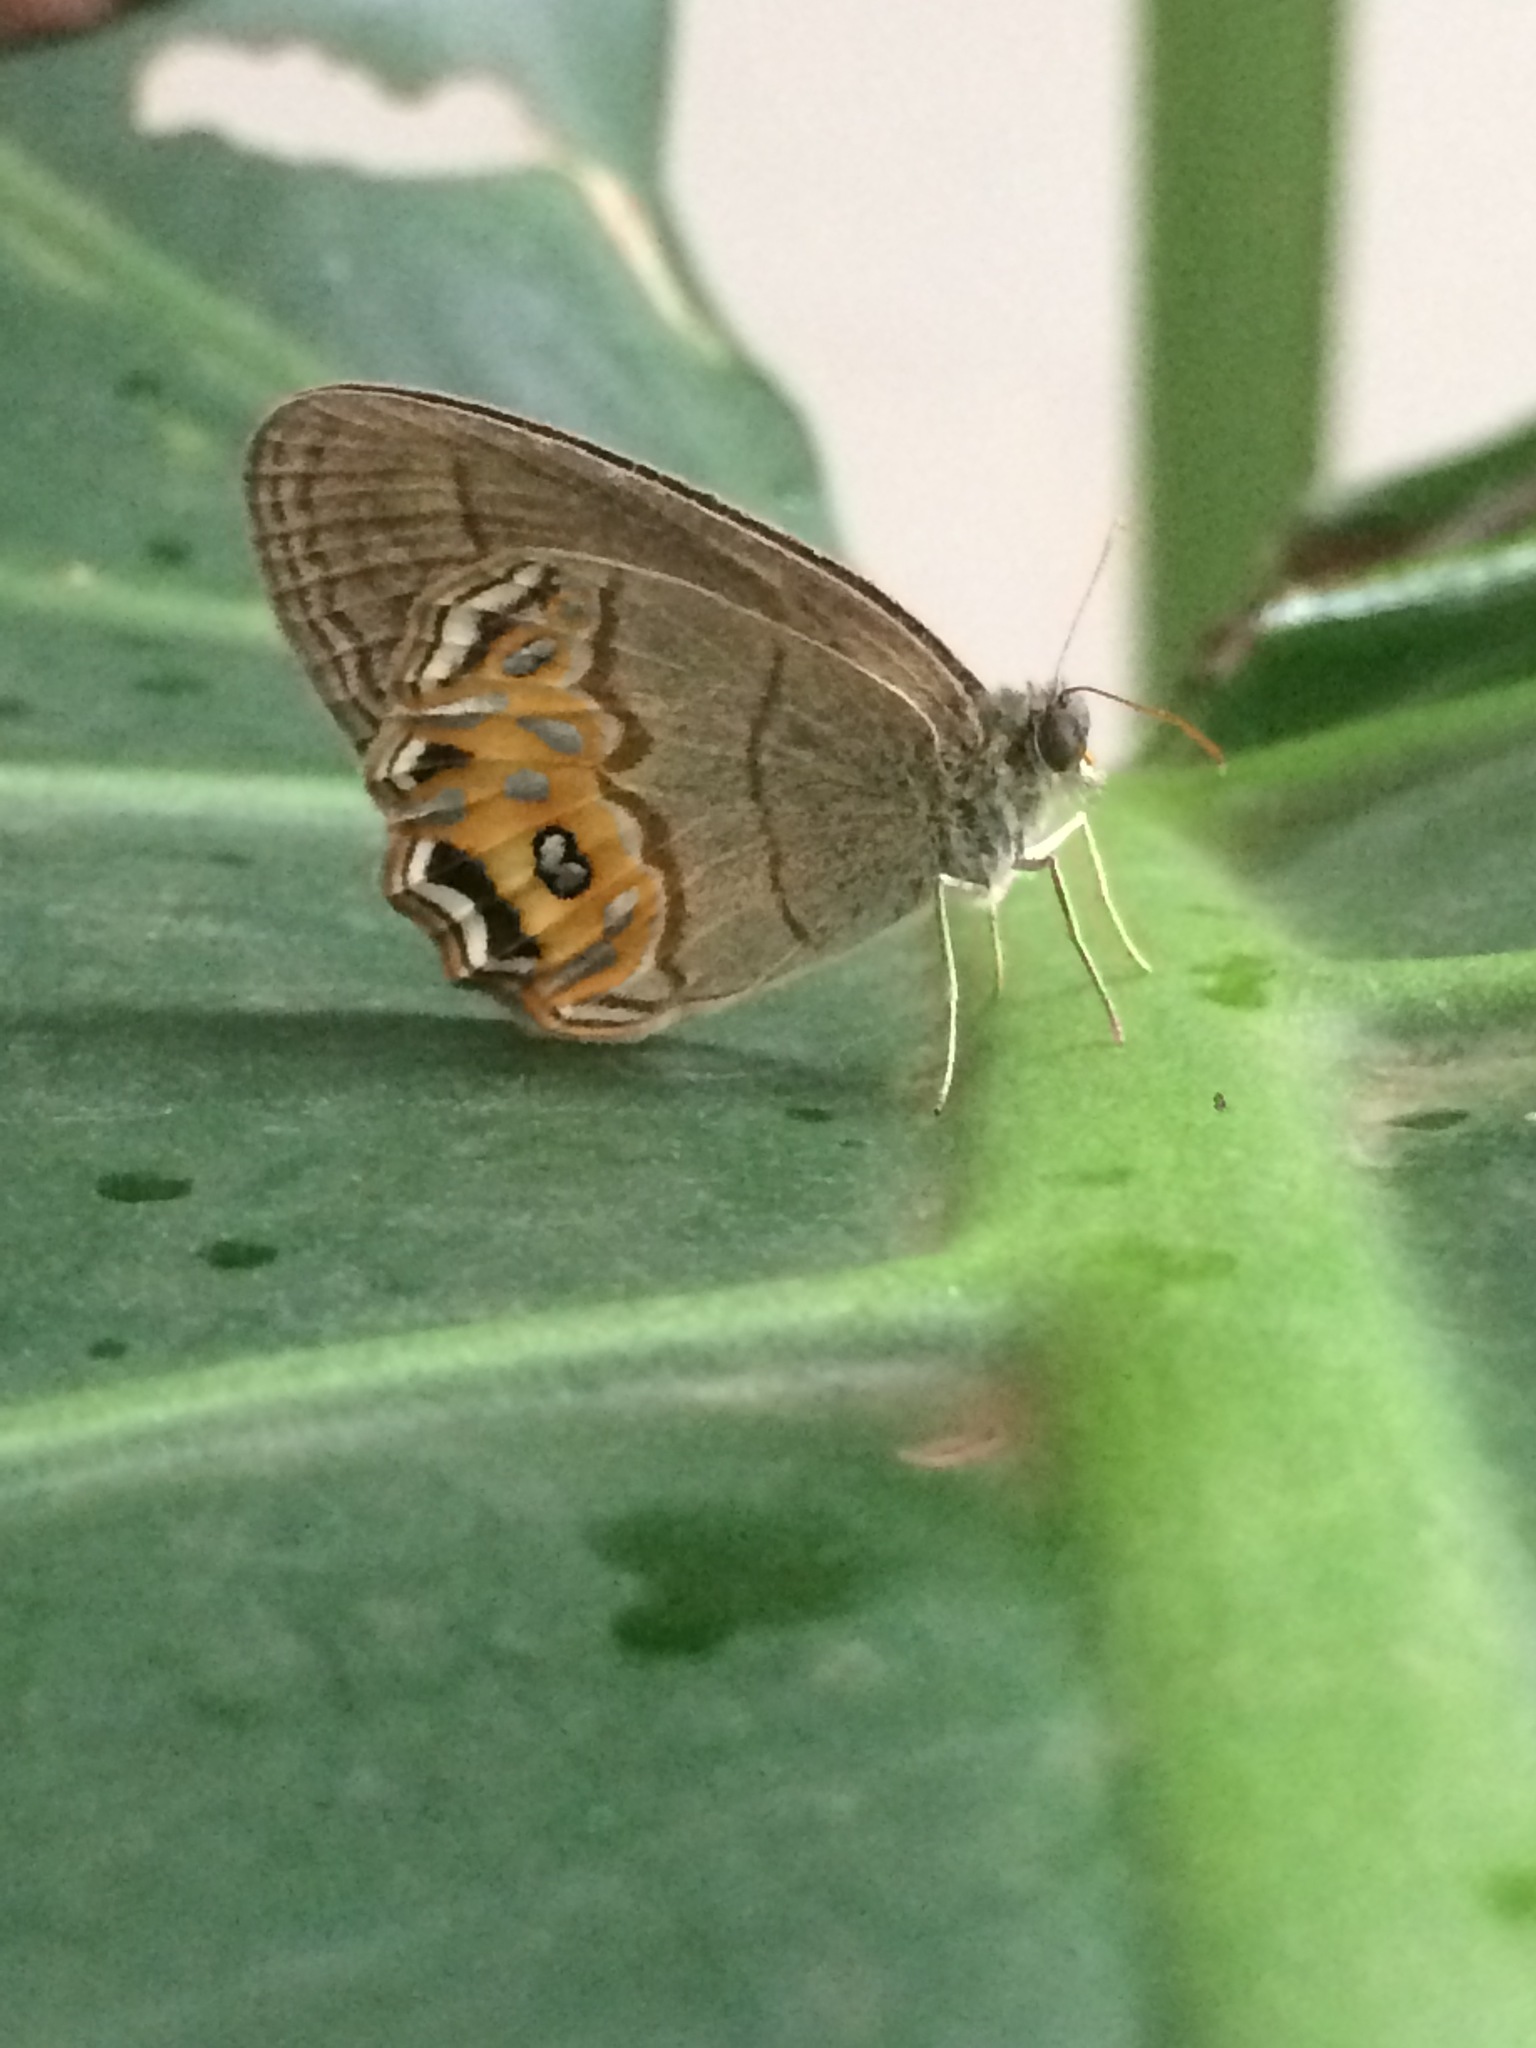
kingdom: Animalia
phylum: Arthropoda
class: Insecta
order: Lepidoptera
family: Nymphalidae
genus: Splendeuptychia
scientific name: Splendeuptychia libitina
